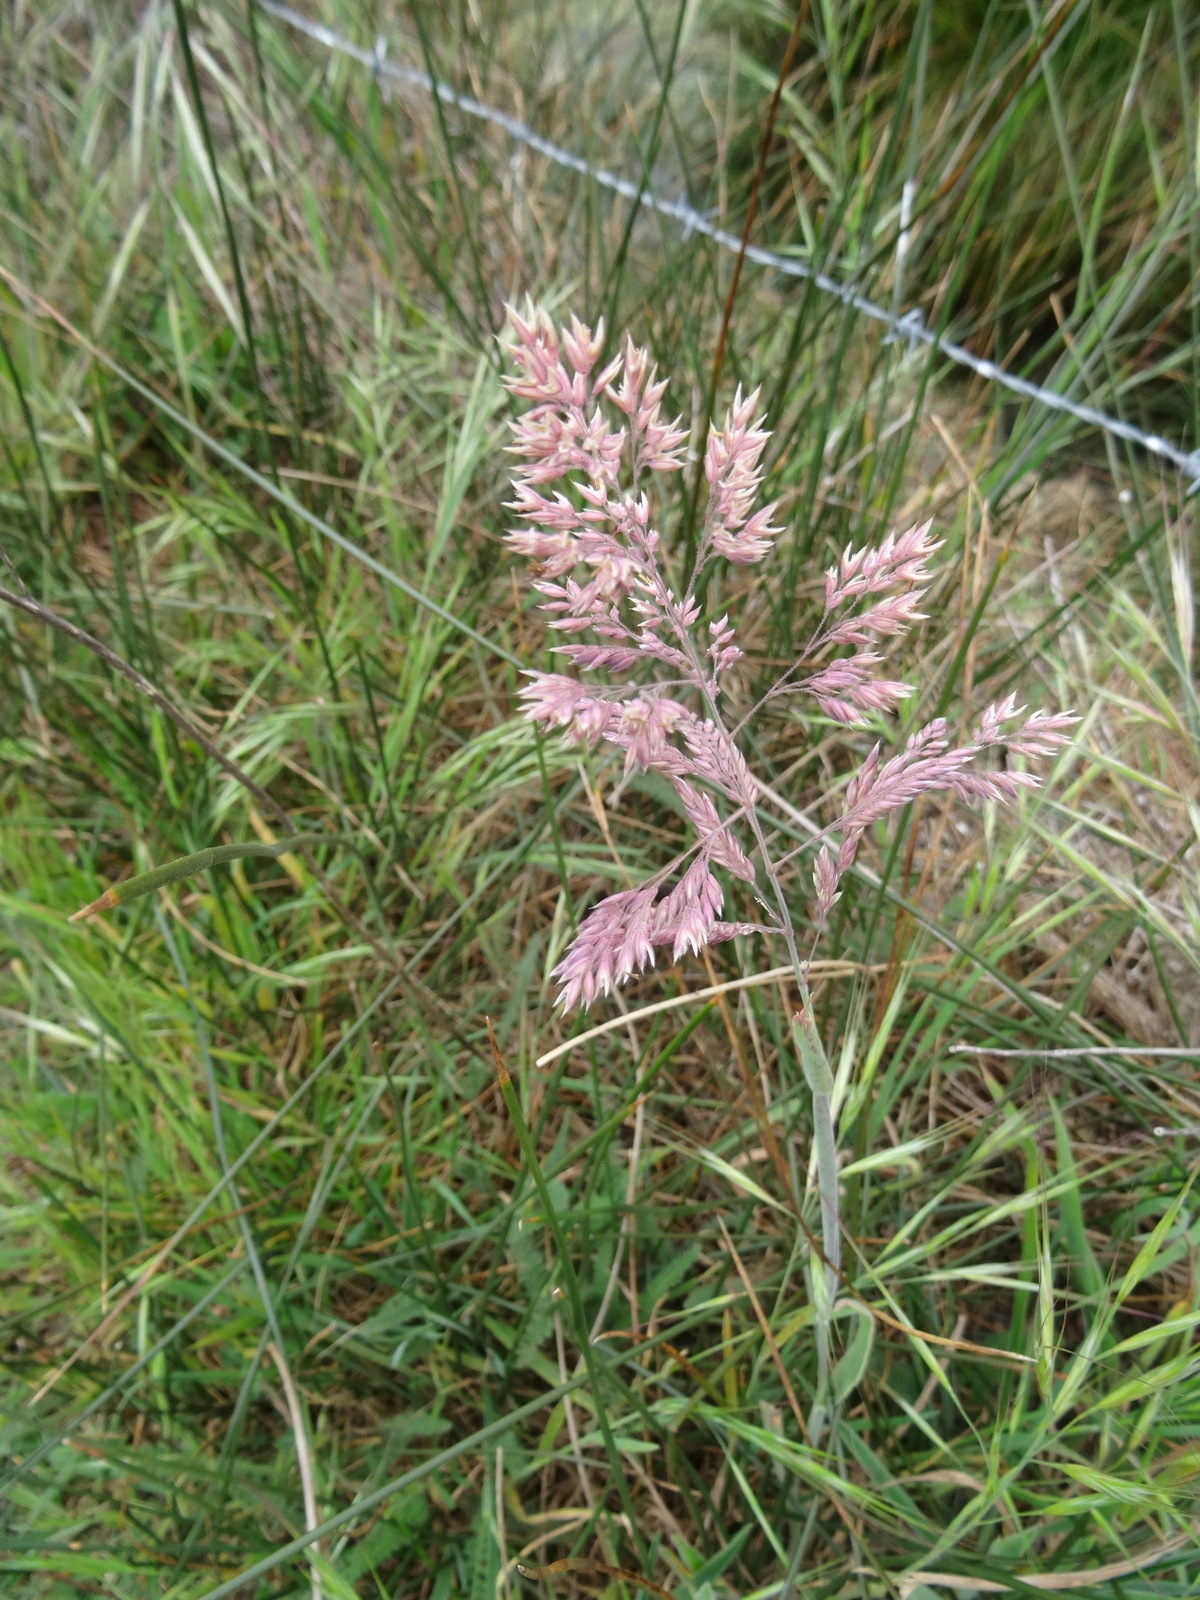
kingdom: Plantae
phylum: Tracheophyta
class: Liliopsida
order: Poales
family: Poaceae
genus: Holcus
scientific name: Holcus lanatus
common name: Yorkshire-fog
